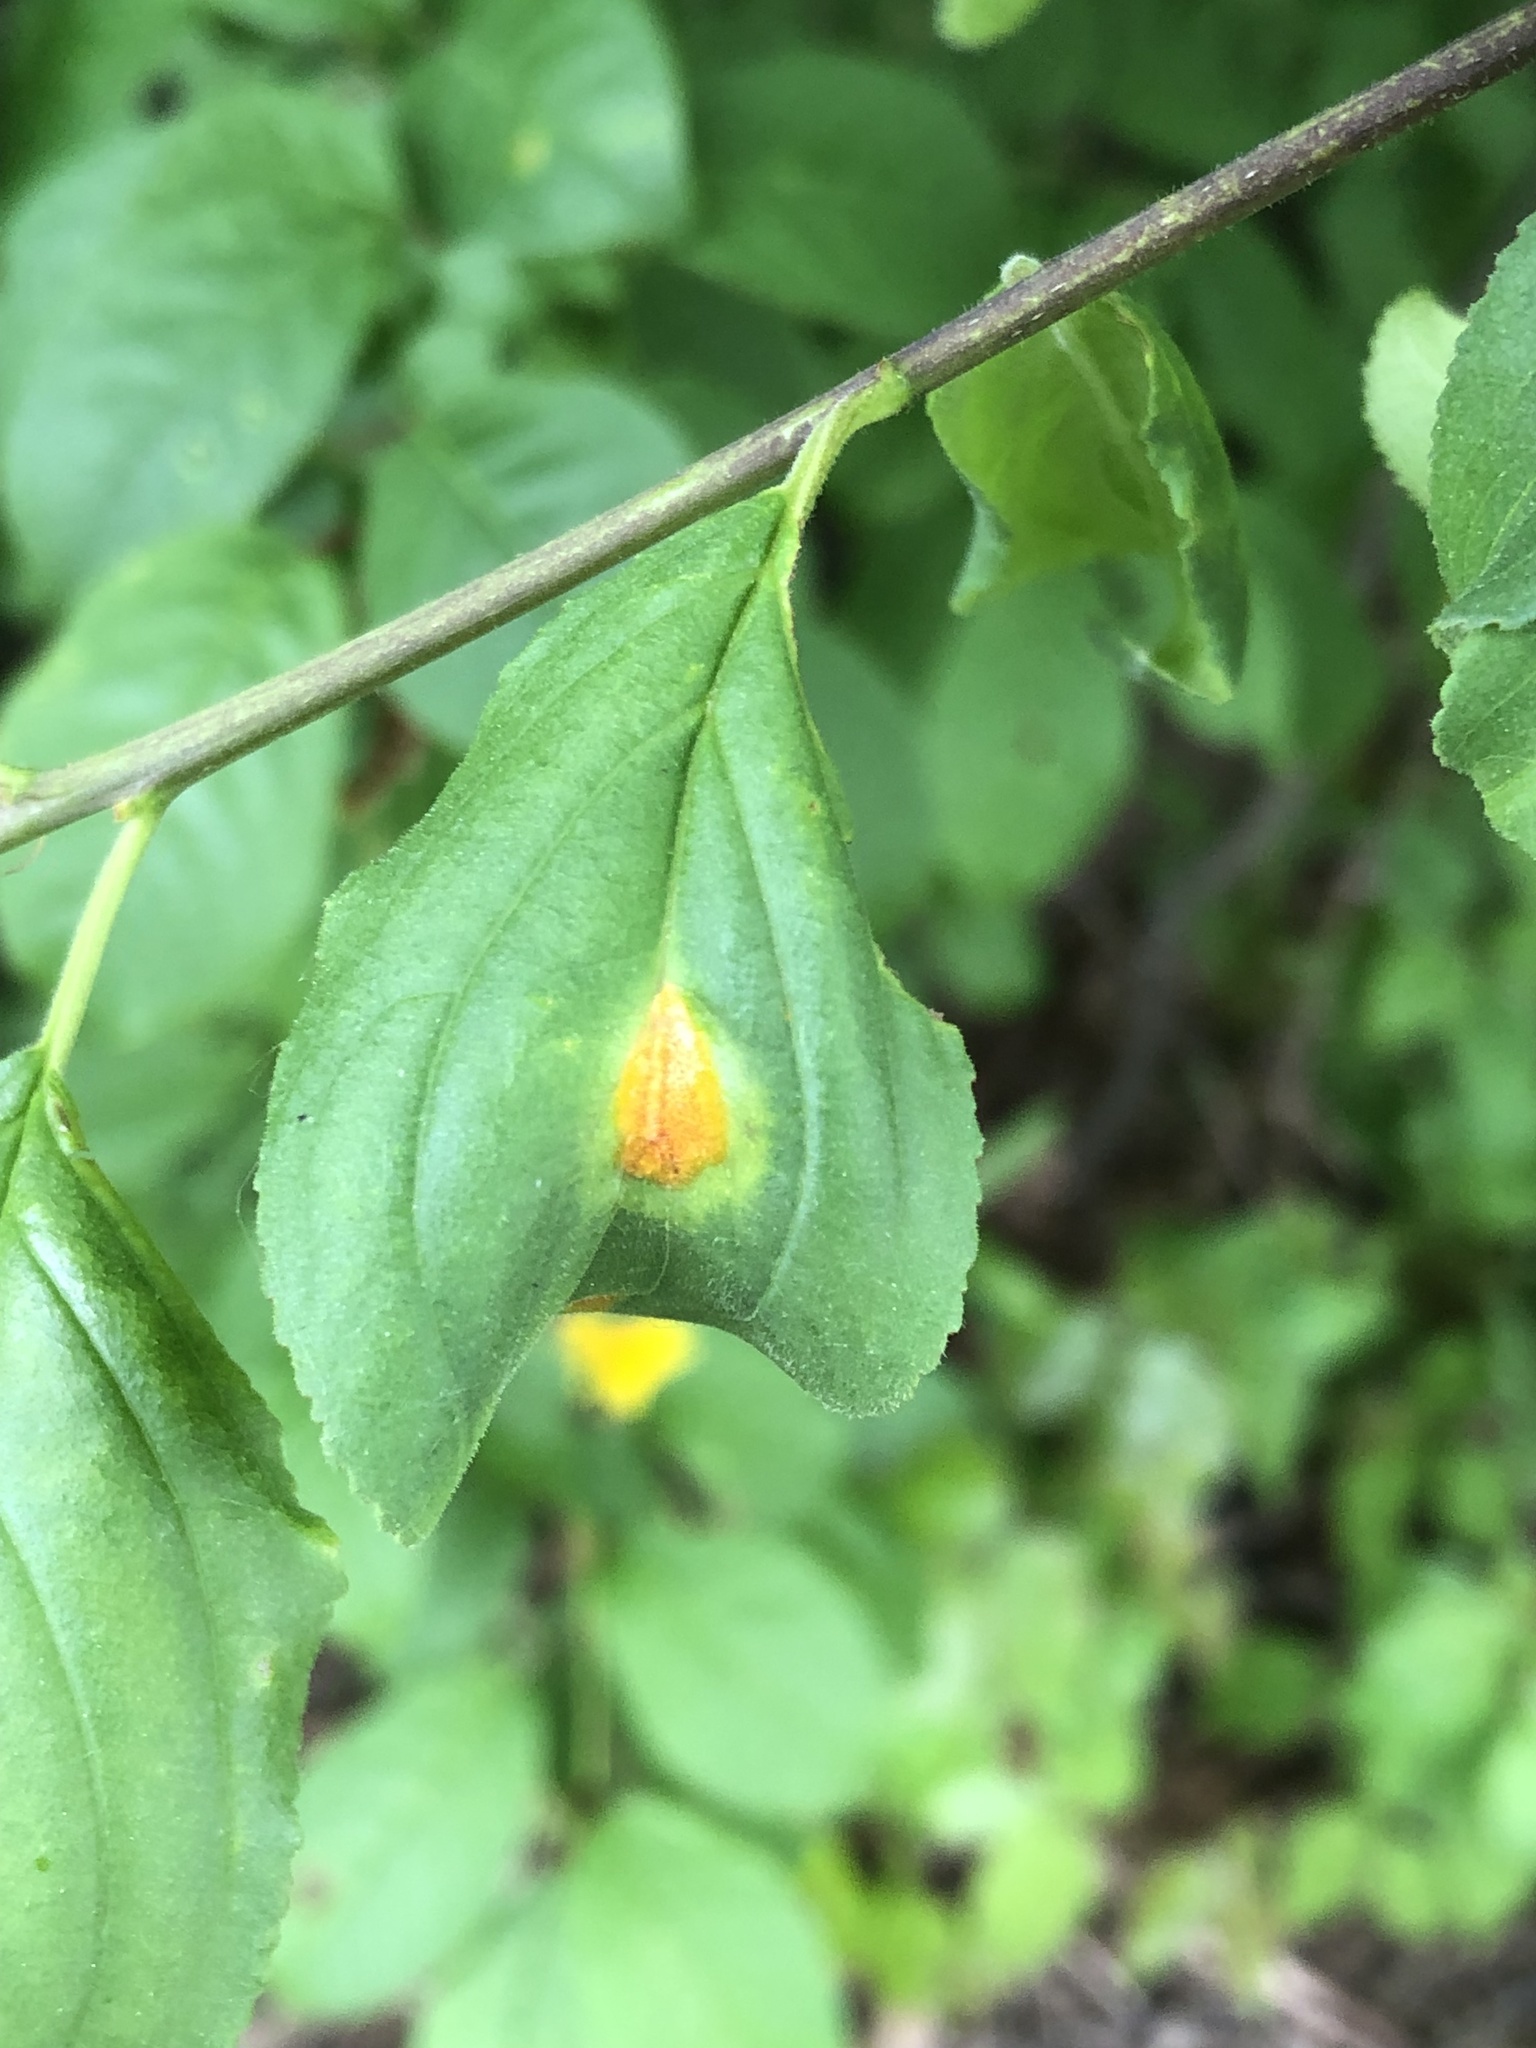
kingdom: Fungi
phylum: Basidiomycota
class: Pucciniomycetes
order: Pucciniales
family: Pucciniaceae
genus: Puccinia
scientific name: Puccinia coronata
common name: Crown rust
